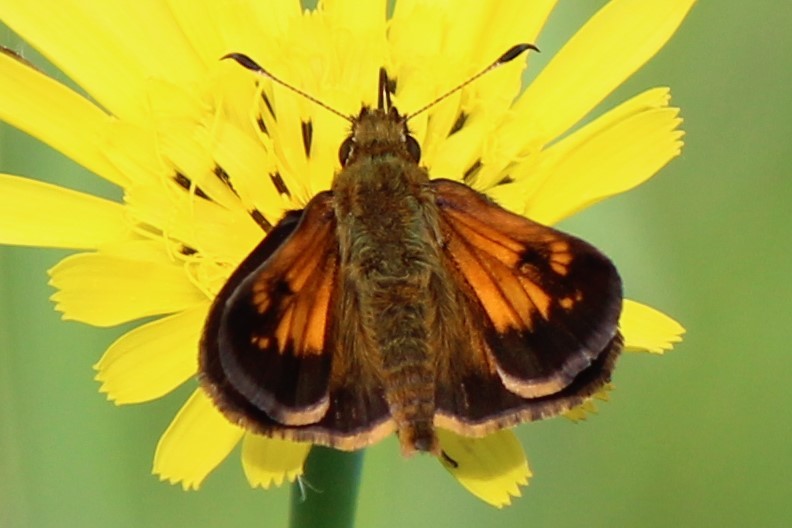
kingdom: Animalia
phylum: Arthropoda
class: Insecta
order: Lepidoptera
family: Hesperiidae
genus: Lon
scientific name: Lon hobomok
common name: Hobomok skipper
